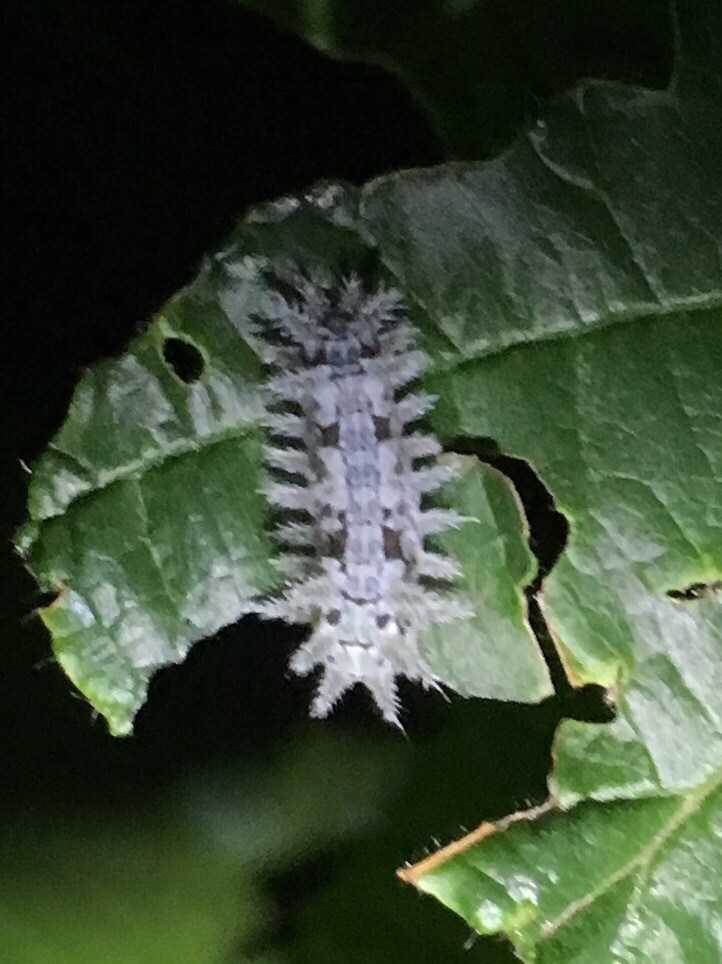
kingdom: Animalia
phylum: Arthropoda
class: Insecta
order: Lepidoptera
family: Limacodidae
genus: Euclea
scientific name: Euclea delphinii
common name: Spiny oak-slug moth
